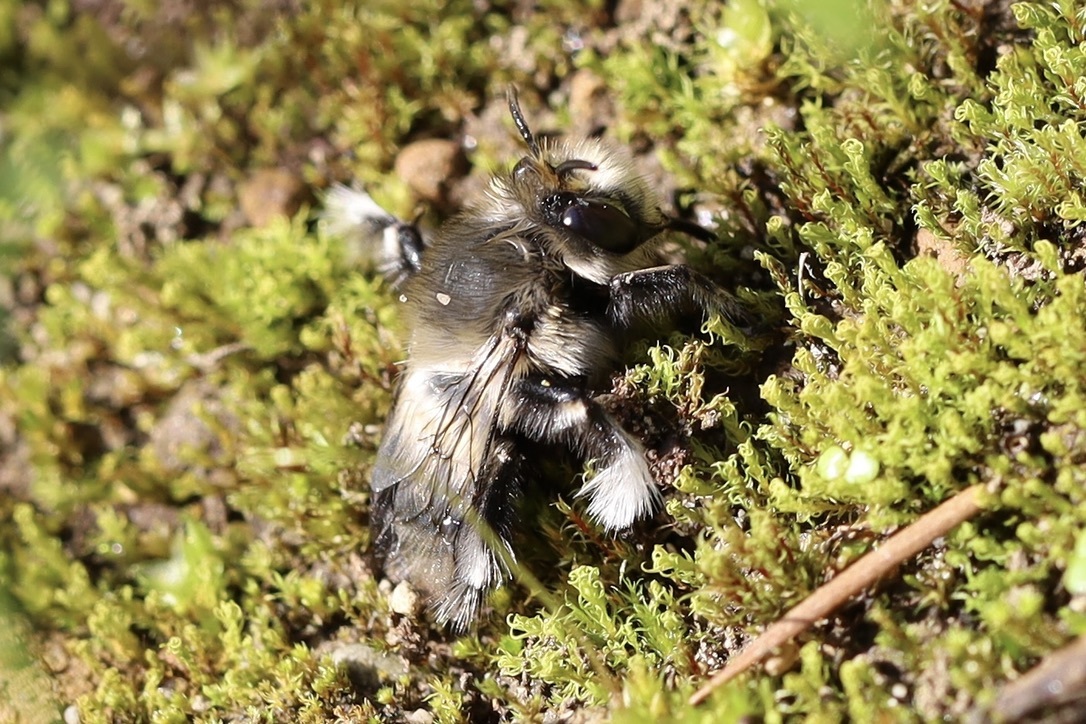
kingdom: Animalia
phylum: Arthropoda
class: Insecta
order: Hymenoptera
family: Apidae
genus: Anthophora
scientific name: Anthophora pacifica
